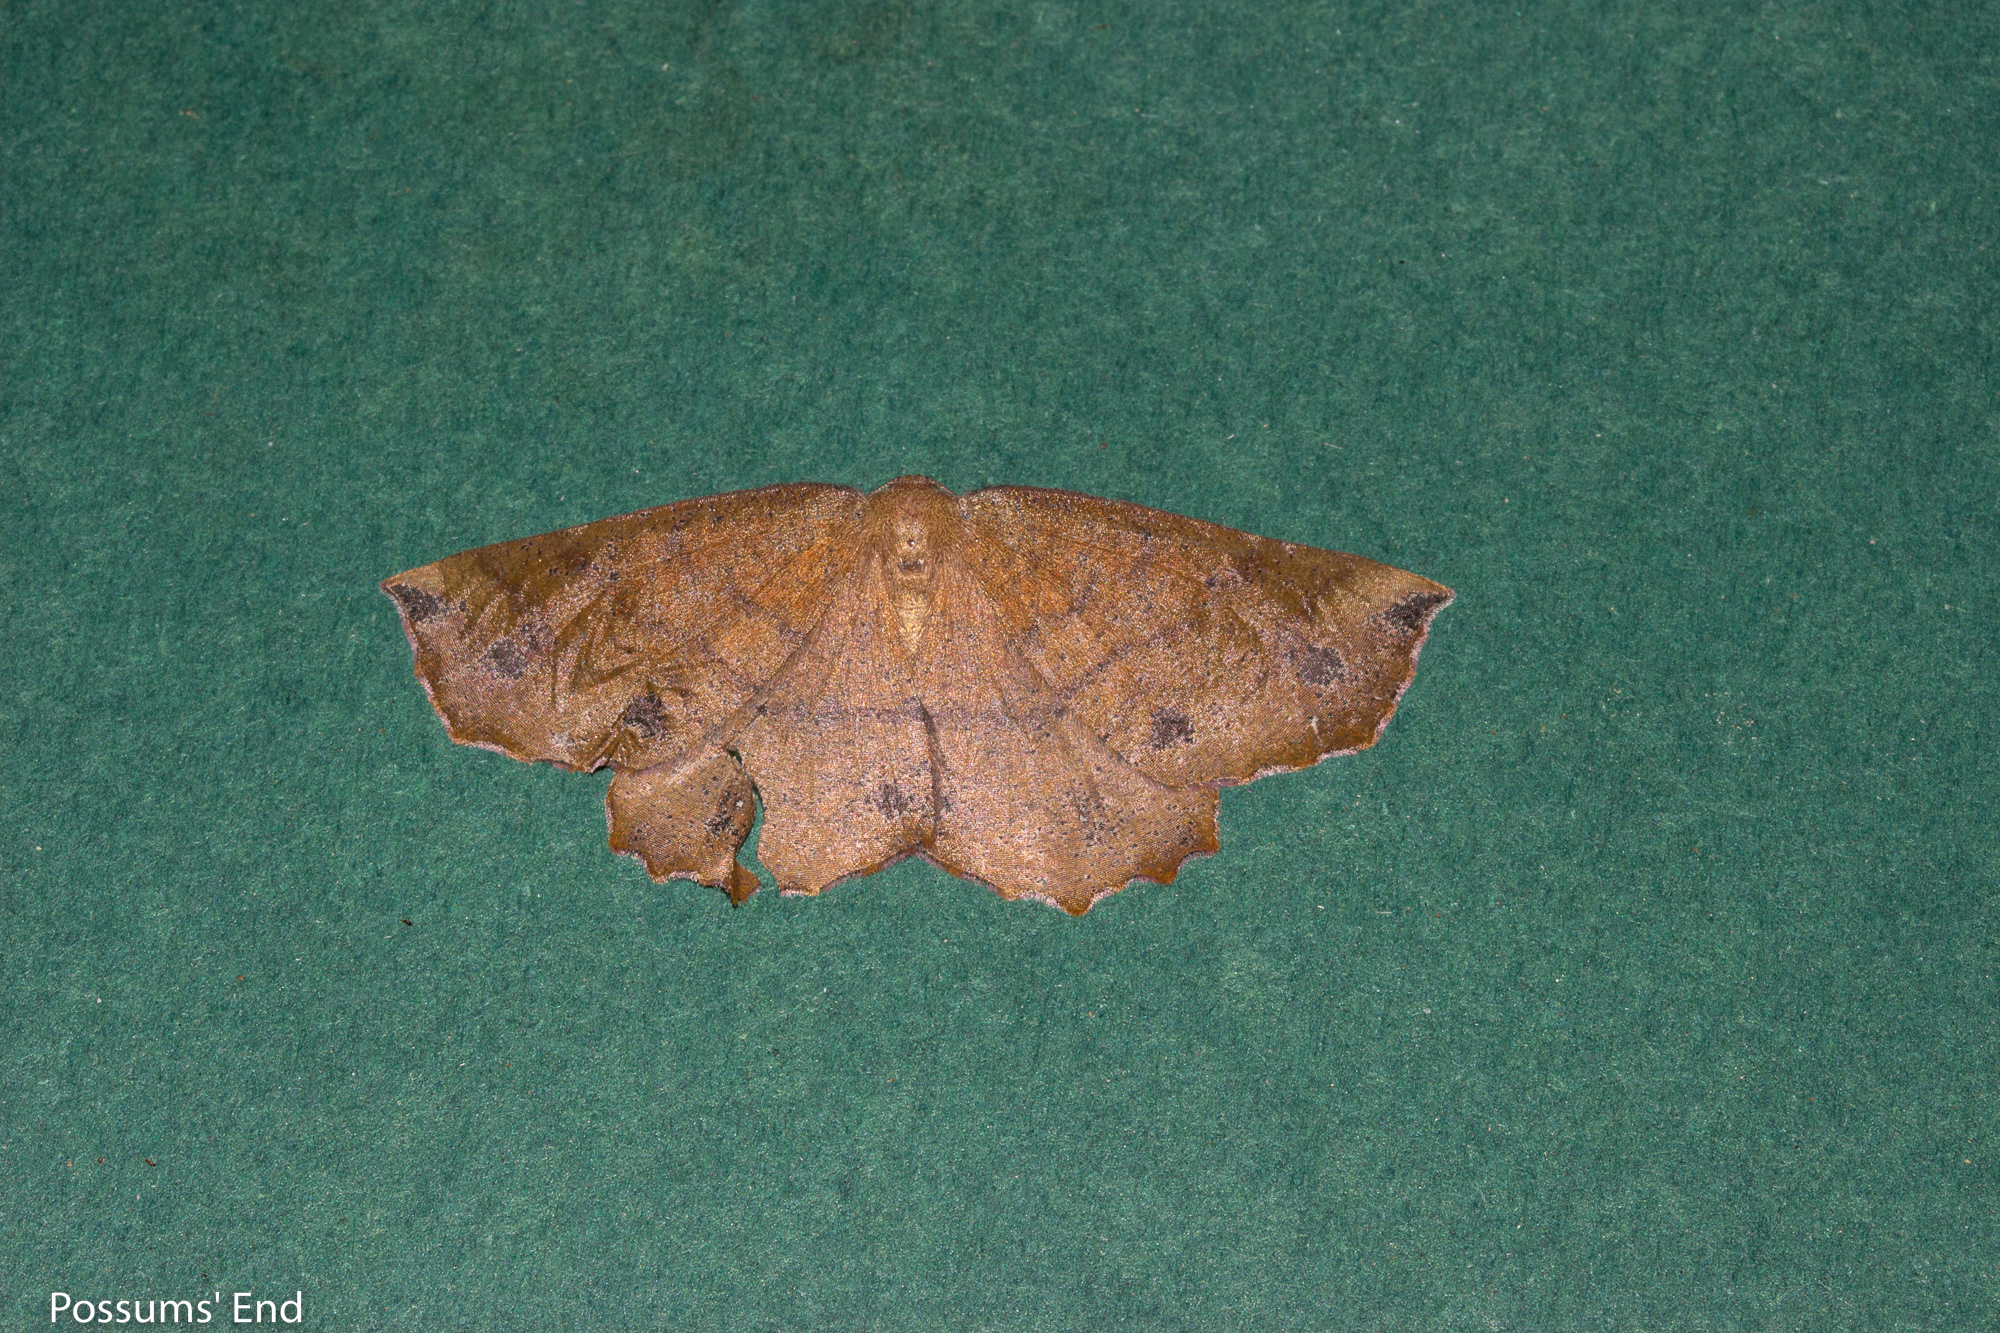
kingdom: Animalia
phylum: Arthropoda
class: Insecta
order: Lepidoptera
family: Geometridae
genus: Xyridacma
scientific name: Xyridacma ustaria
